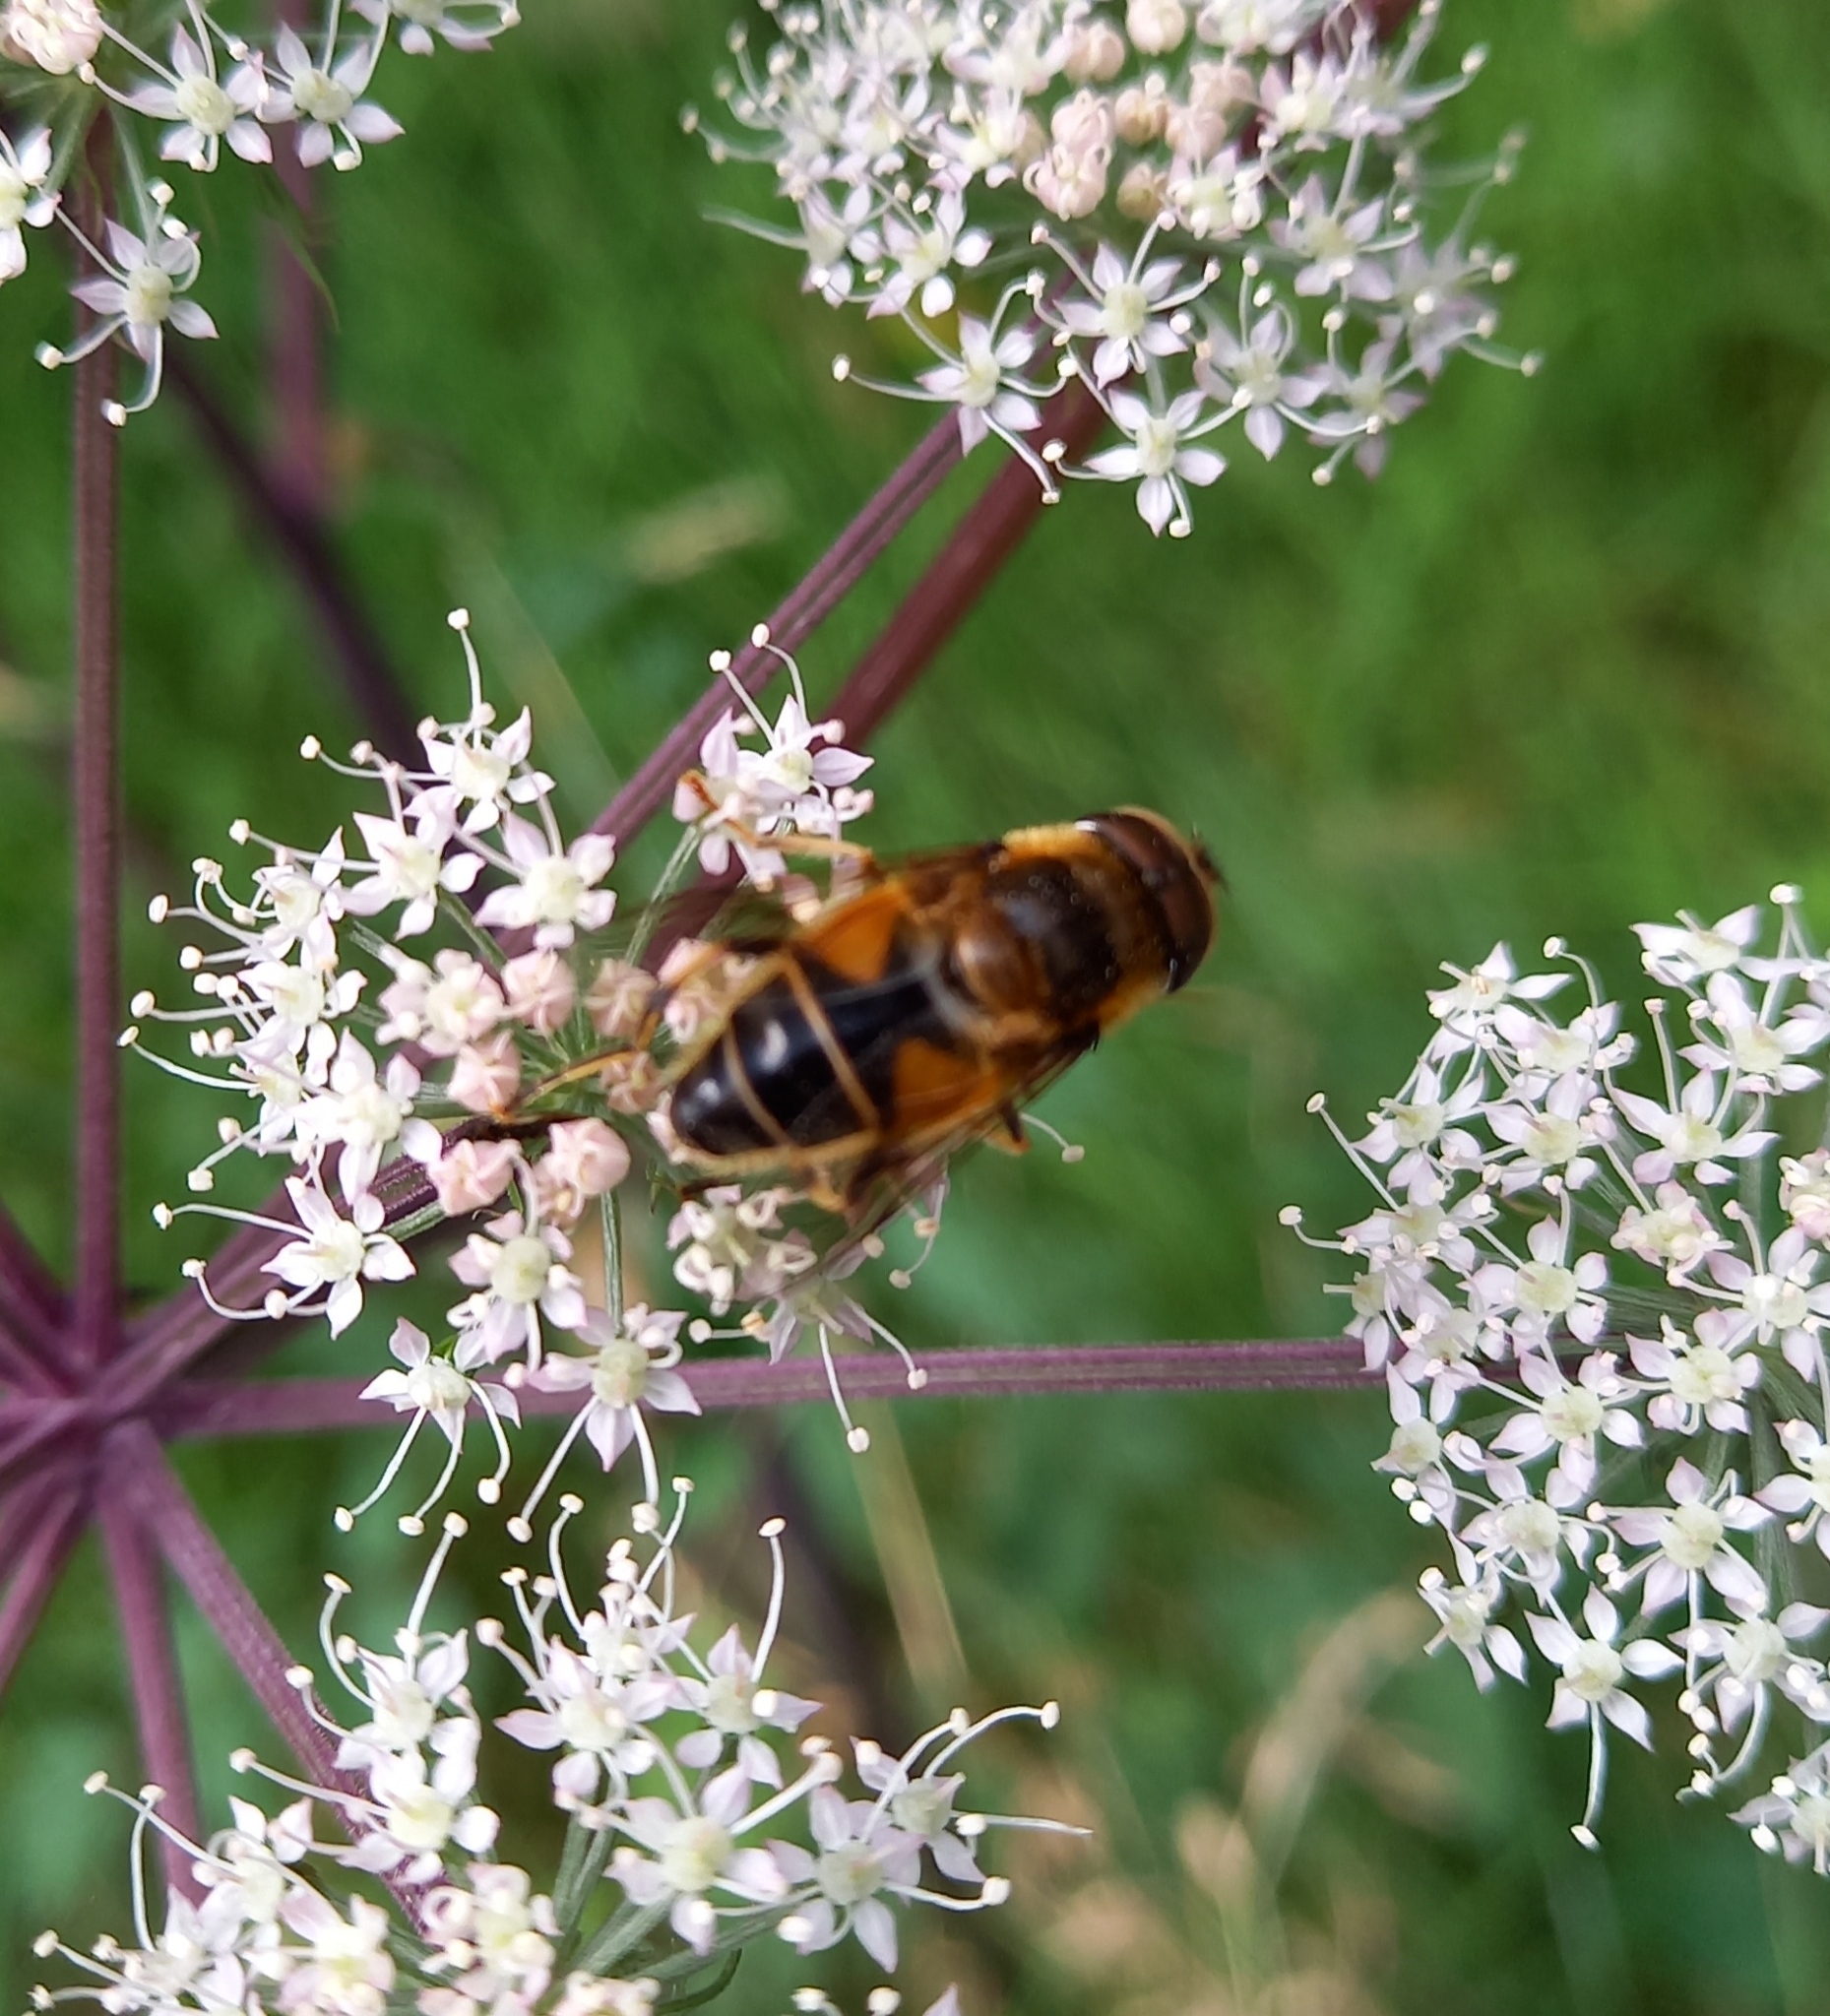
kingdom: Animalia
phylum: Arthropoda
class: Insecta
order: Diptera
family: Syrphidae
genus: Eristalis
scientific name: Eristalis pertinax
